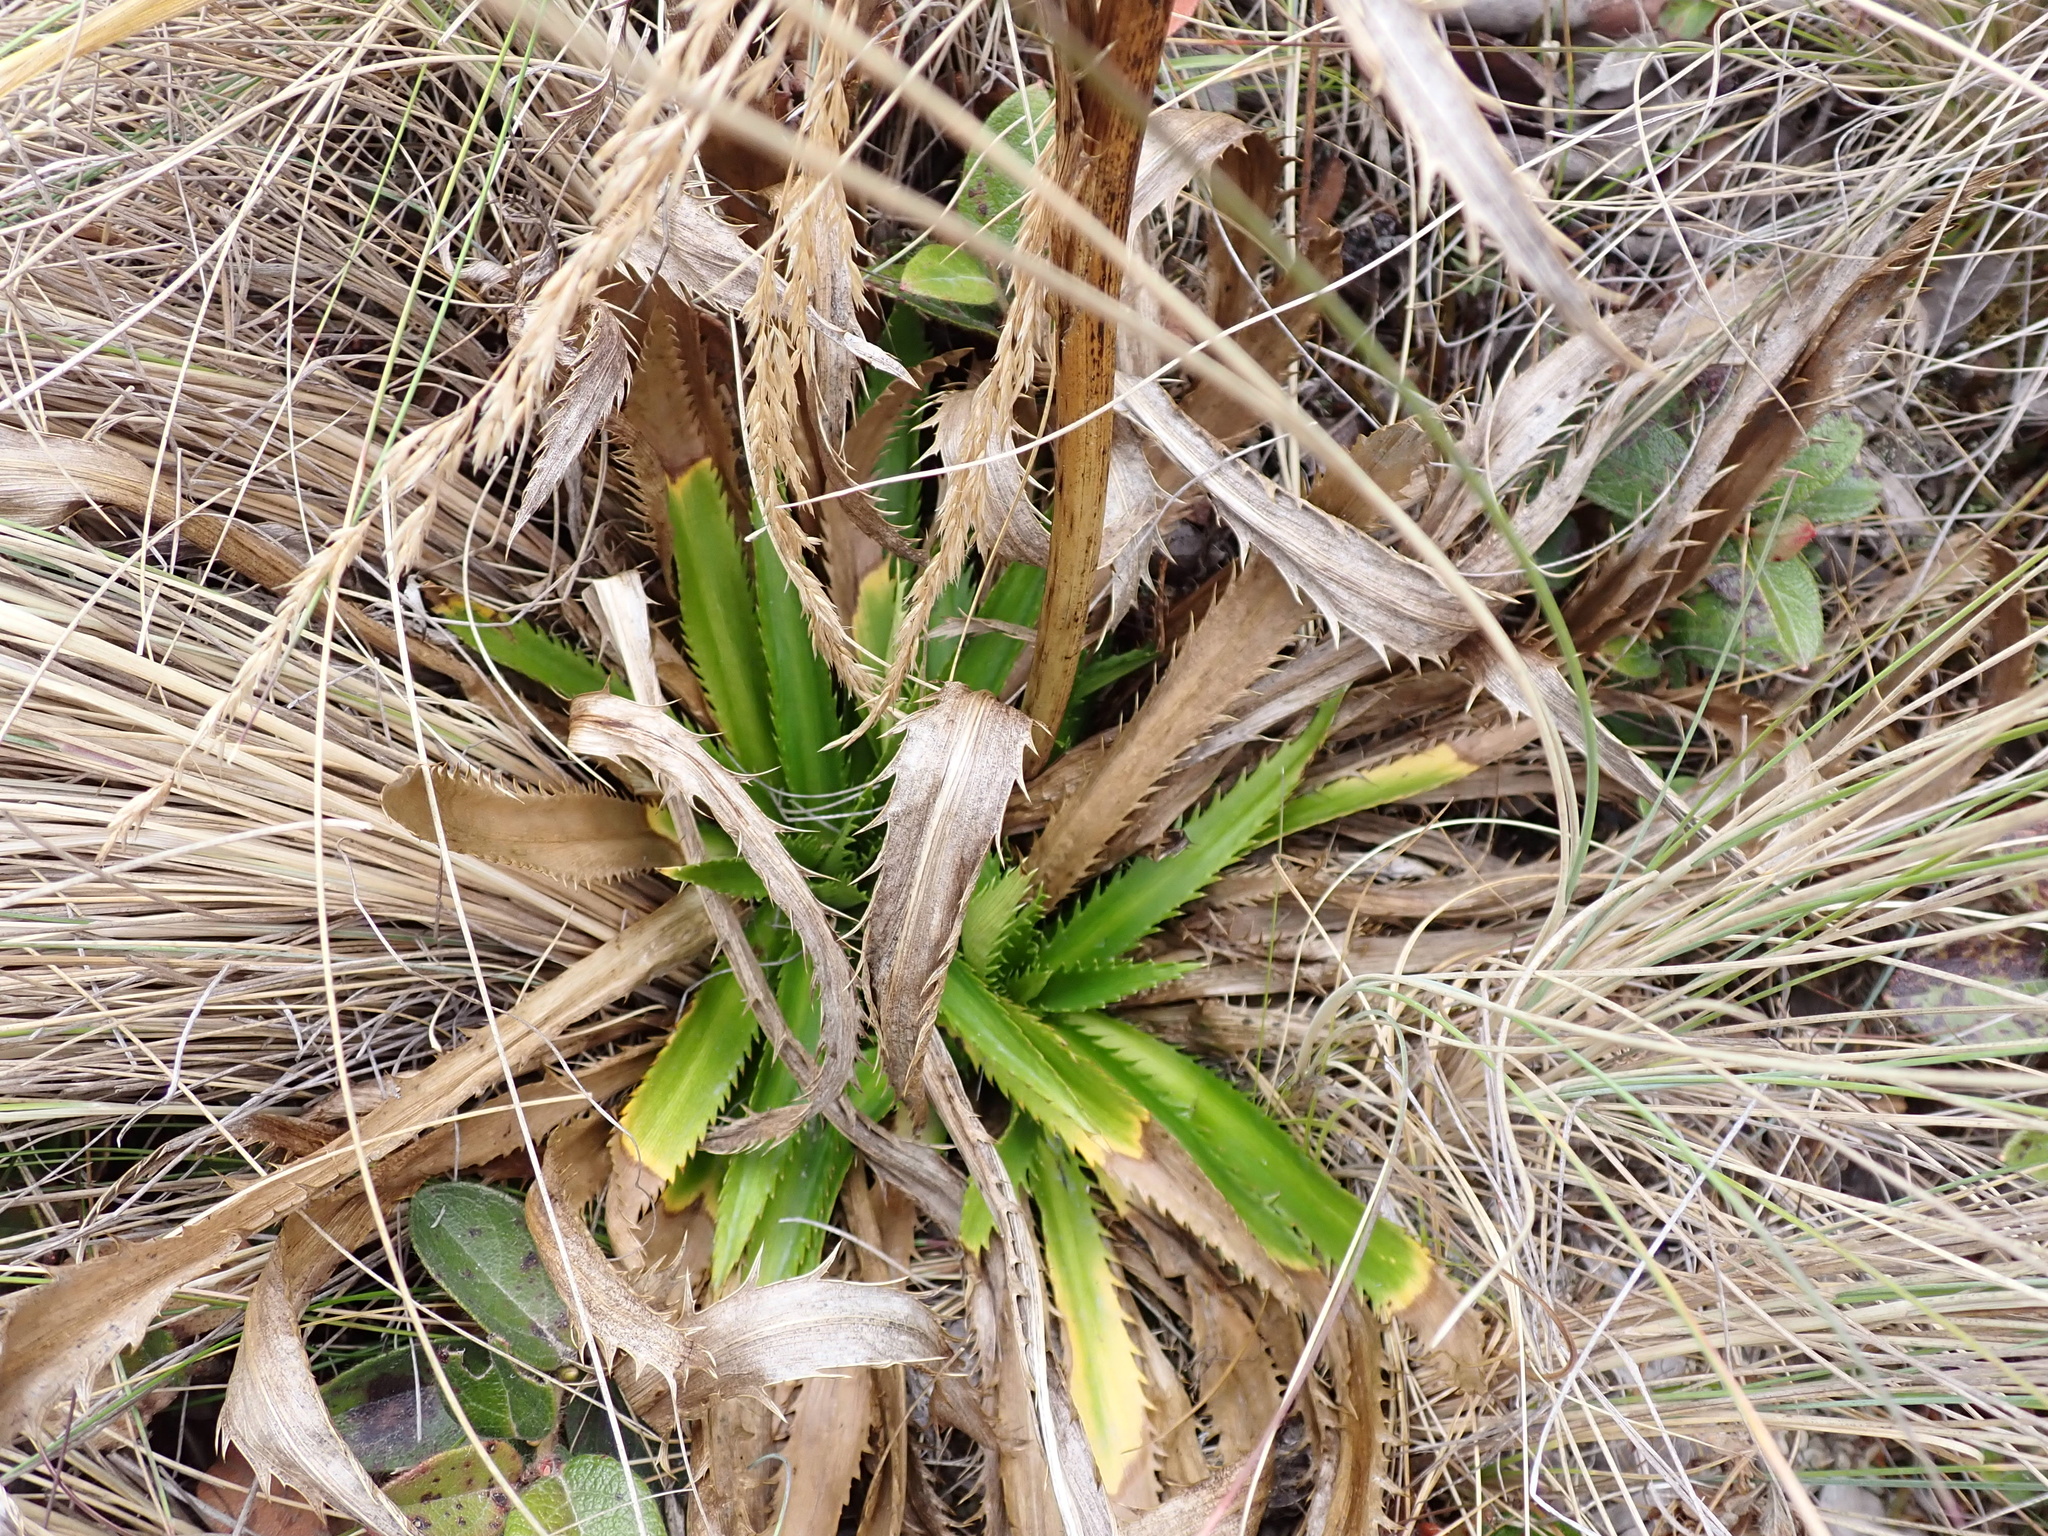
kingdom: Plantae
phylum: Tracheophyta
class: Magnoliopsida
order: Apiales
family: Apiaceae
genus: Eryngium
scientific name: Eryngium weberbaueri
